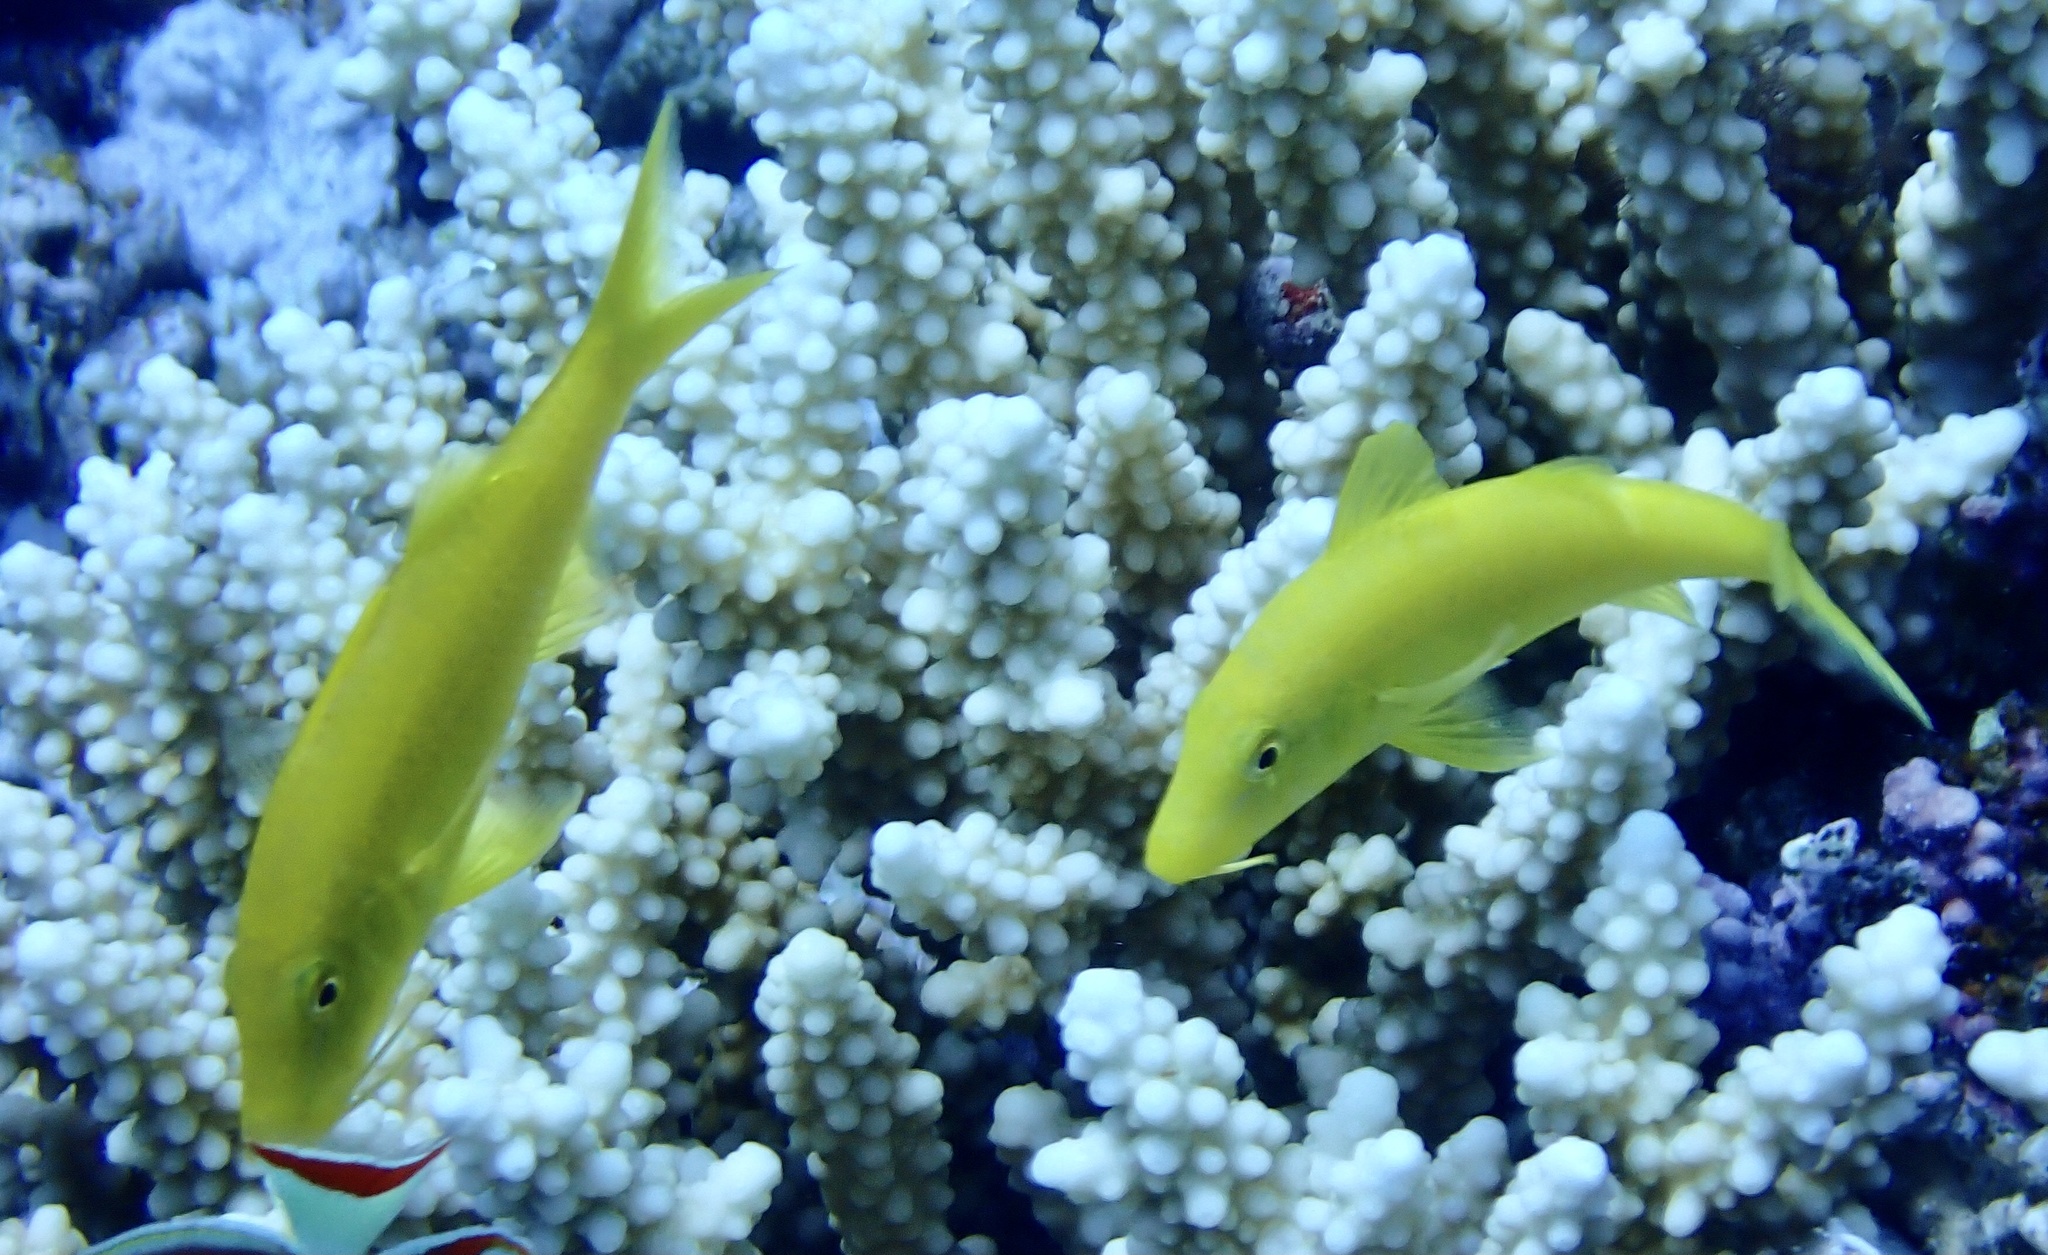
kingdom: Animalia
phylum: Chordata
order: Perciformes
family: Mullidae
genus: Parupeneus
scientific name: Parupeneus cyclostomus
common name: Goldsaddle goatfish
